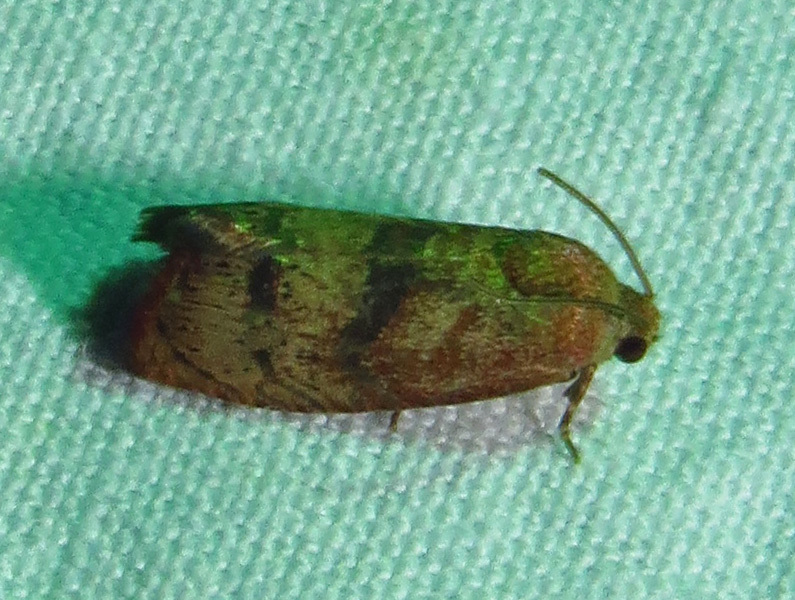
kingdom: Animalia
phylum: Arthropoda
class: Insecta
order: Lepidoptera
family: Tortricidae
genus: Cydia
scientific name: Cydia latiferreana
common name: Filbertworm moth
